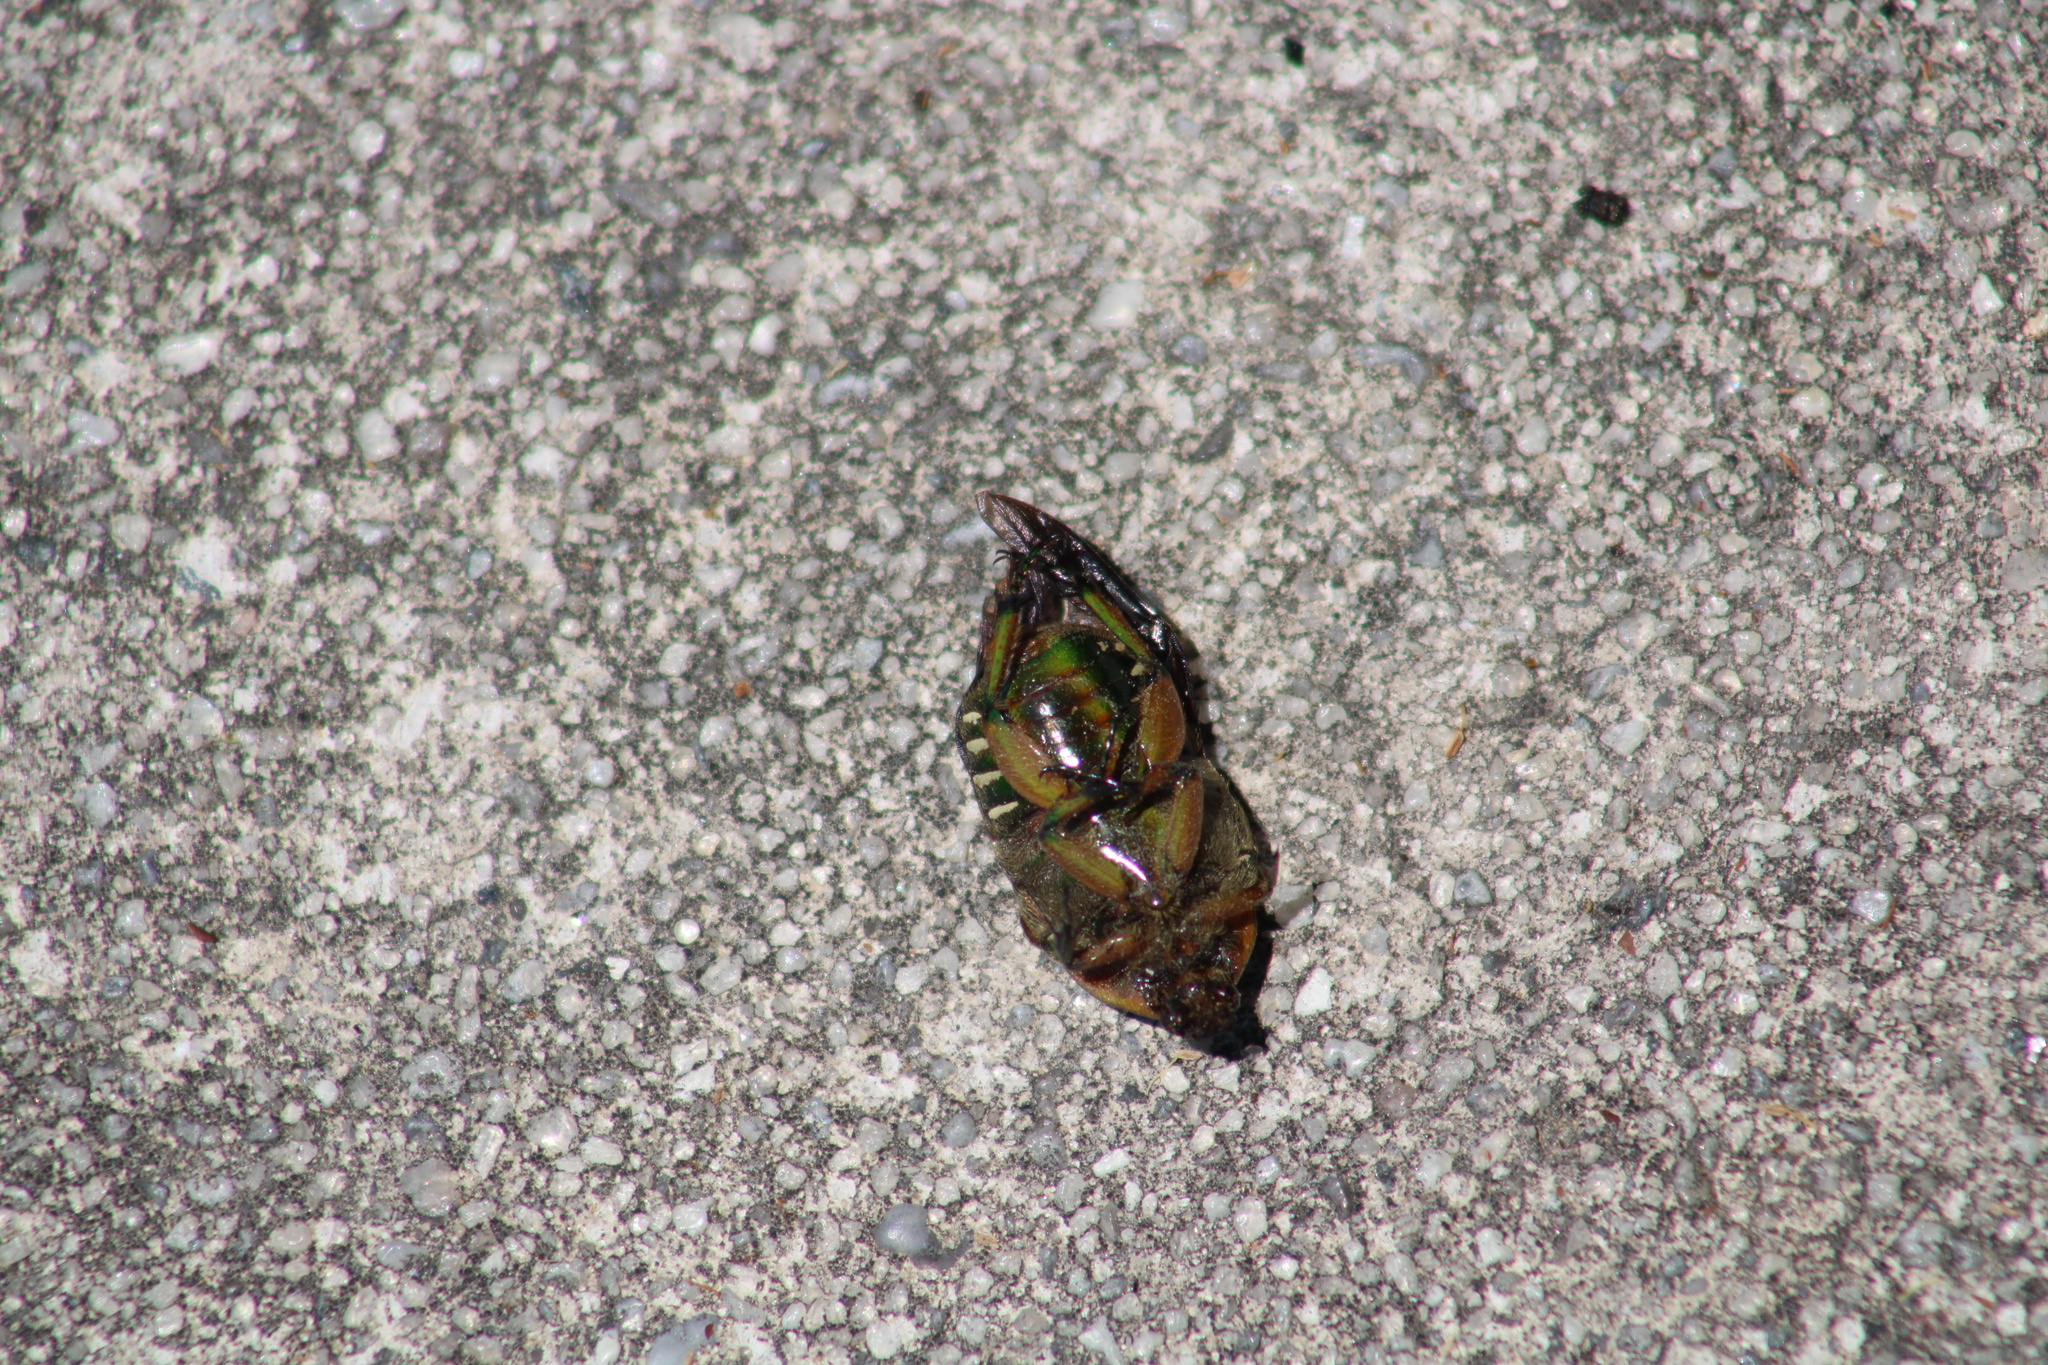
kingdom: Animalia
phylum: Arthropoda
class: Insecta
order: Coleoptera
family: Scarabaeidae
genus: Euphoria
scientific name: Euphoria fulgida
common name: Emerald euphoria
